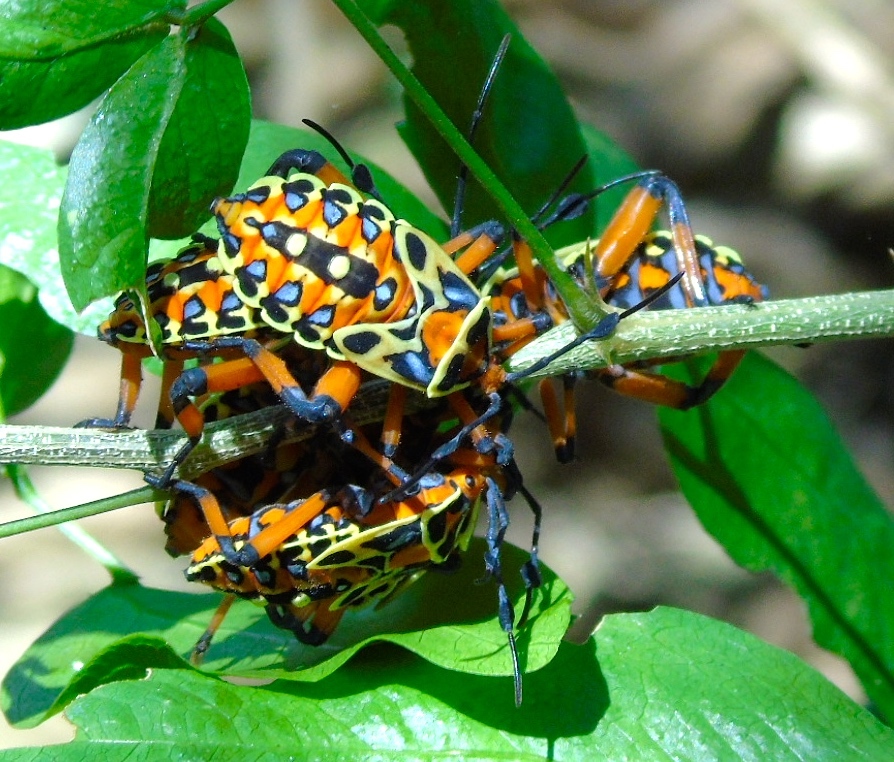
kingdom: Animalia
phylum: Arthropoda
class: Insecta
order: Hemiptera
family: Coreidae
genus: Pachylis
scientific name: Pachylis nervosus
